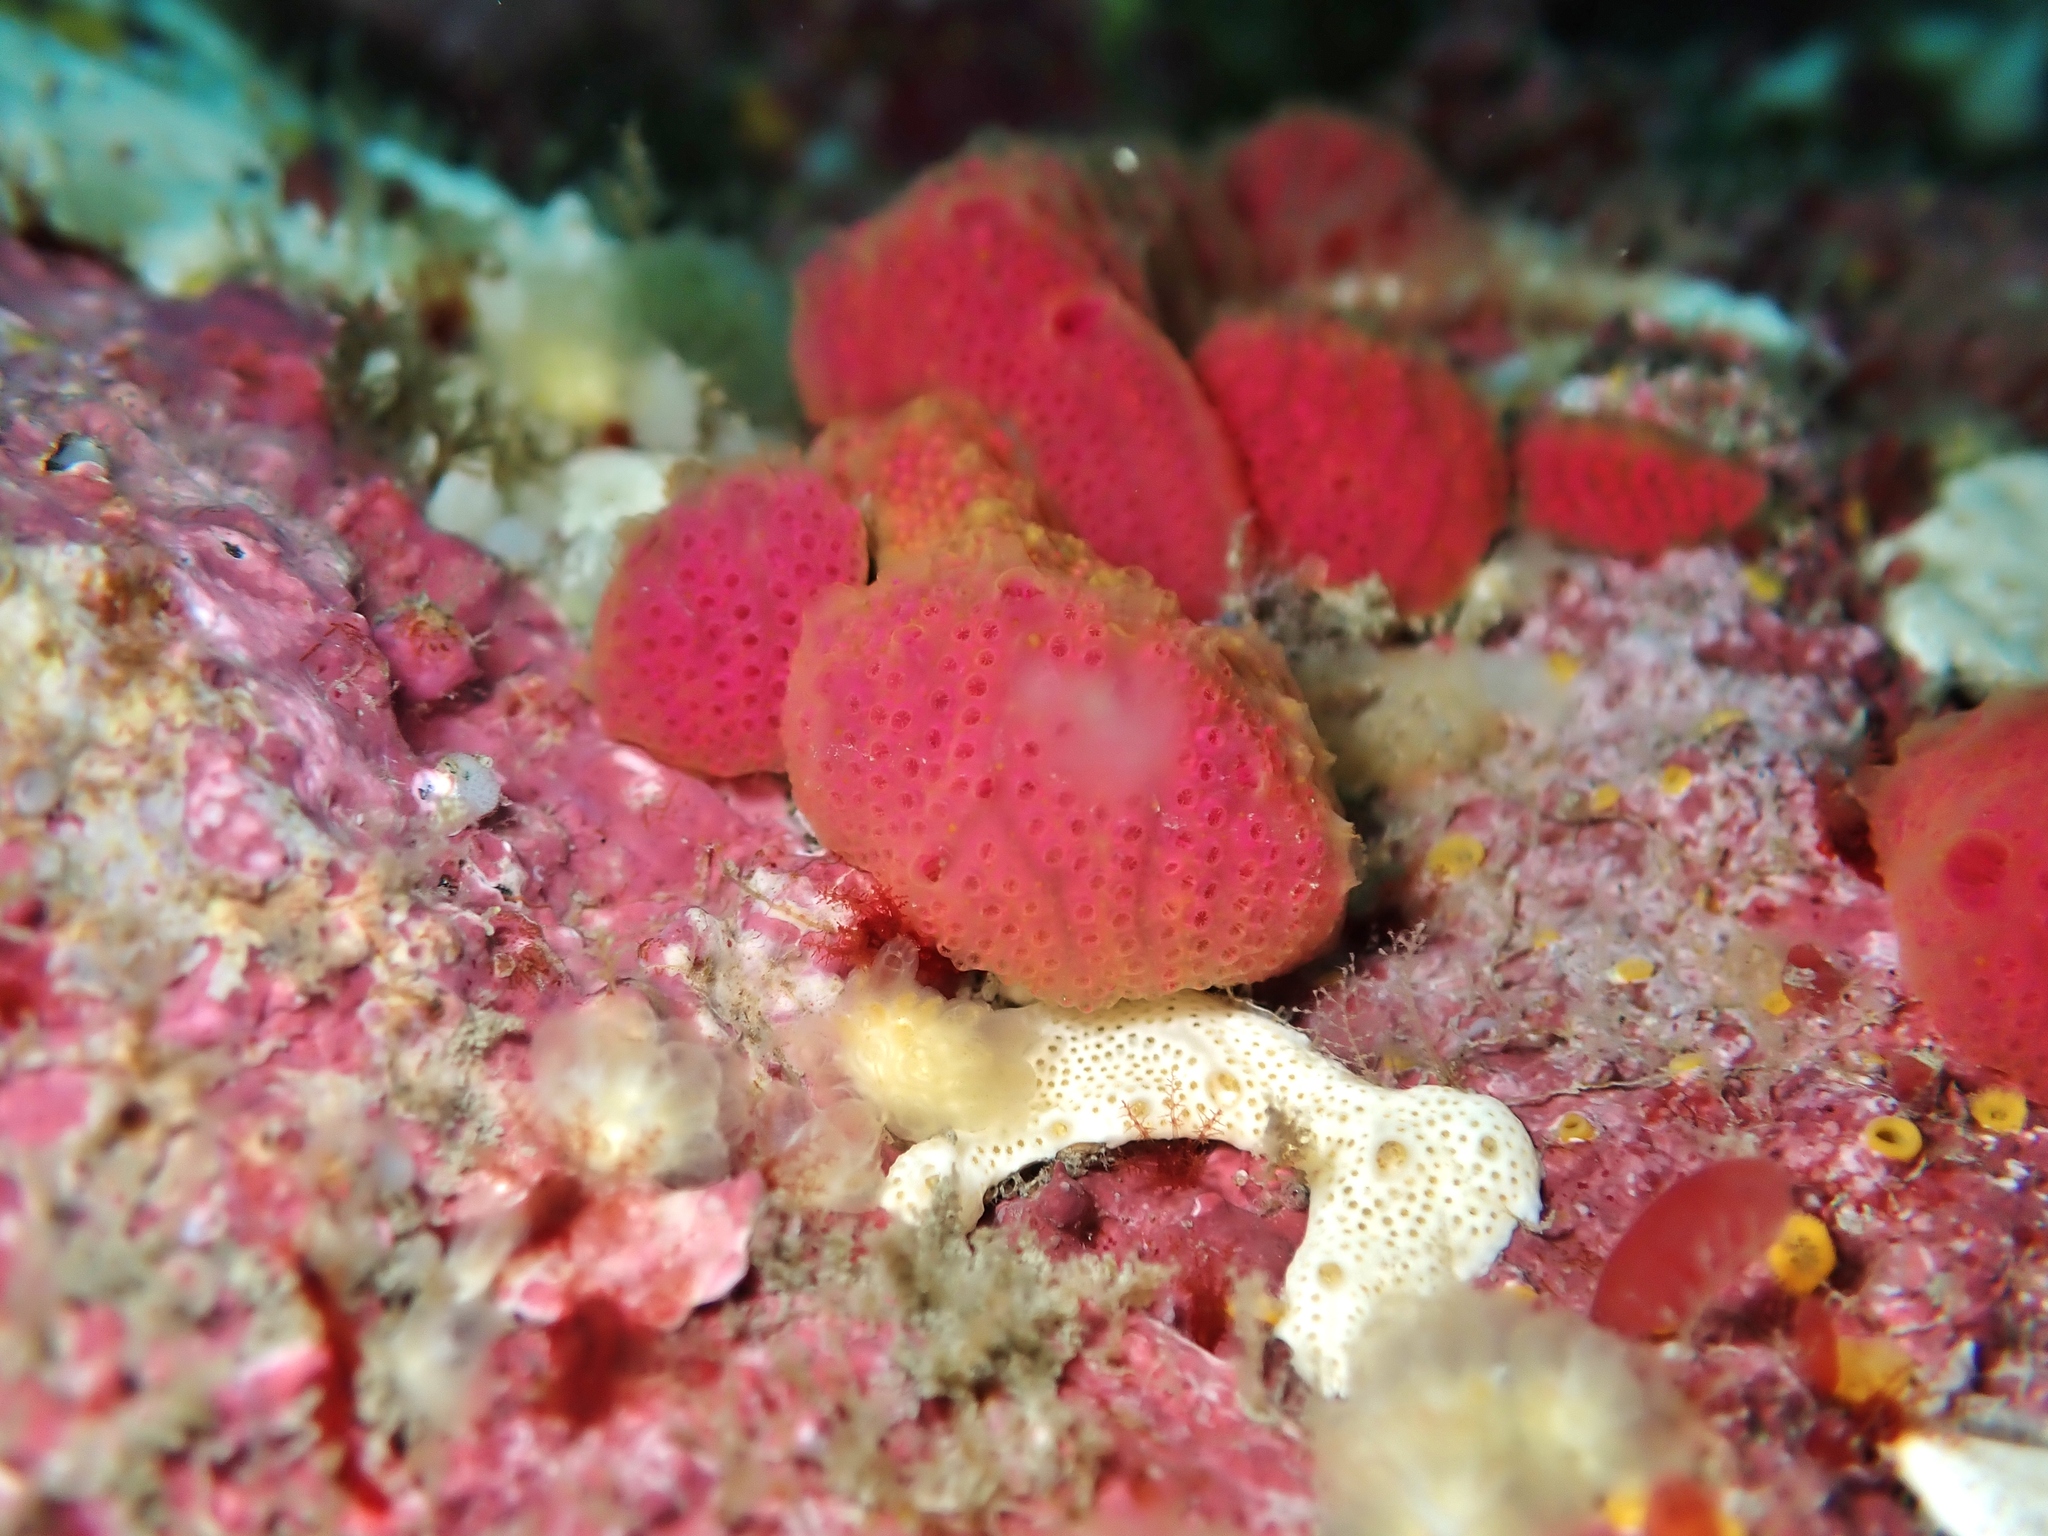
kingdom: Animalia
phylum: Chordata
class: Ascidiacea
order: Aplousobranchia
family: Holozoidae
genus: Hypsistozoa
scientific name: Hypsistozoa fasmeriana
